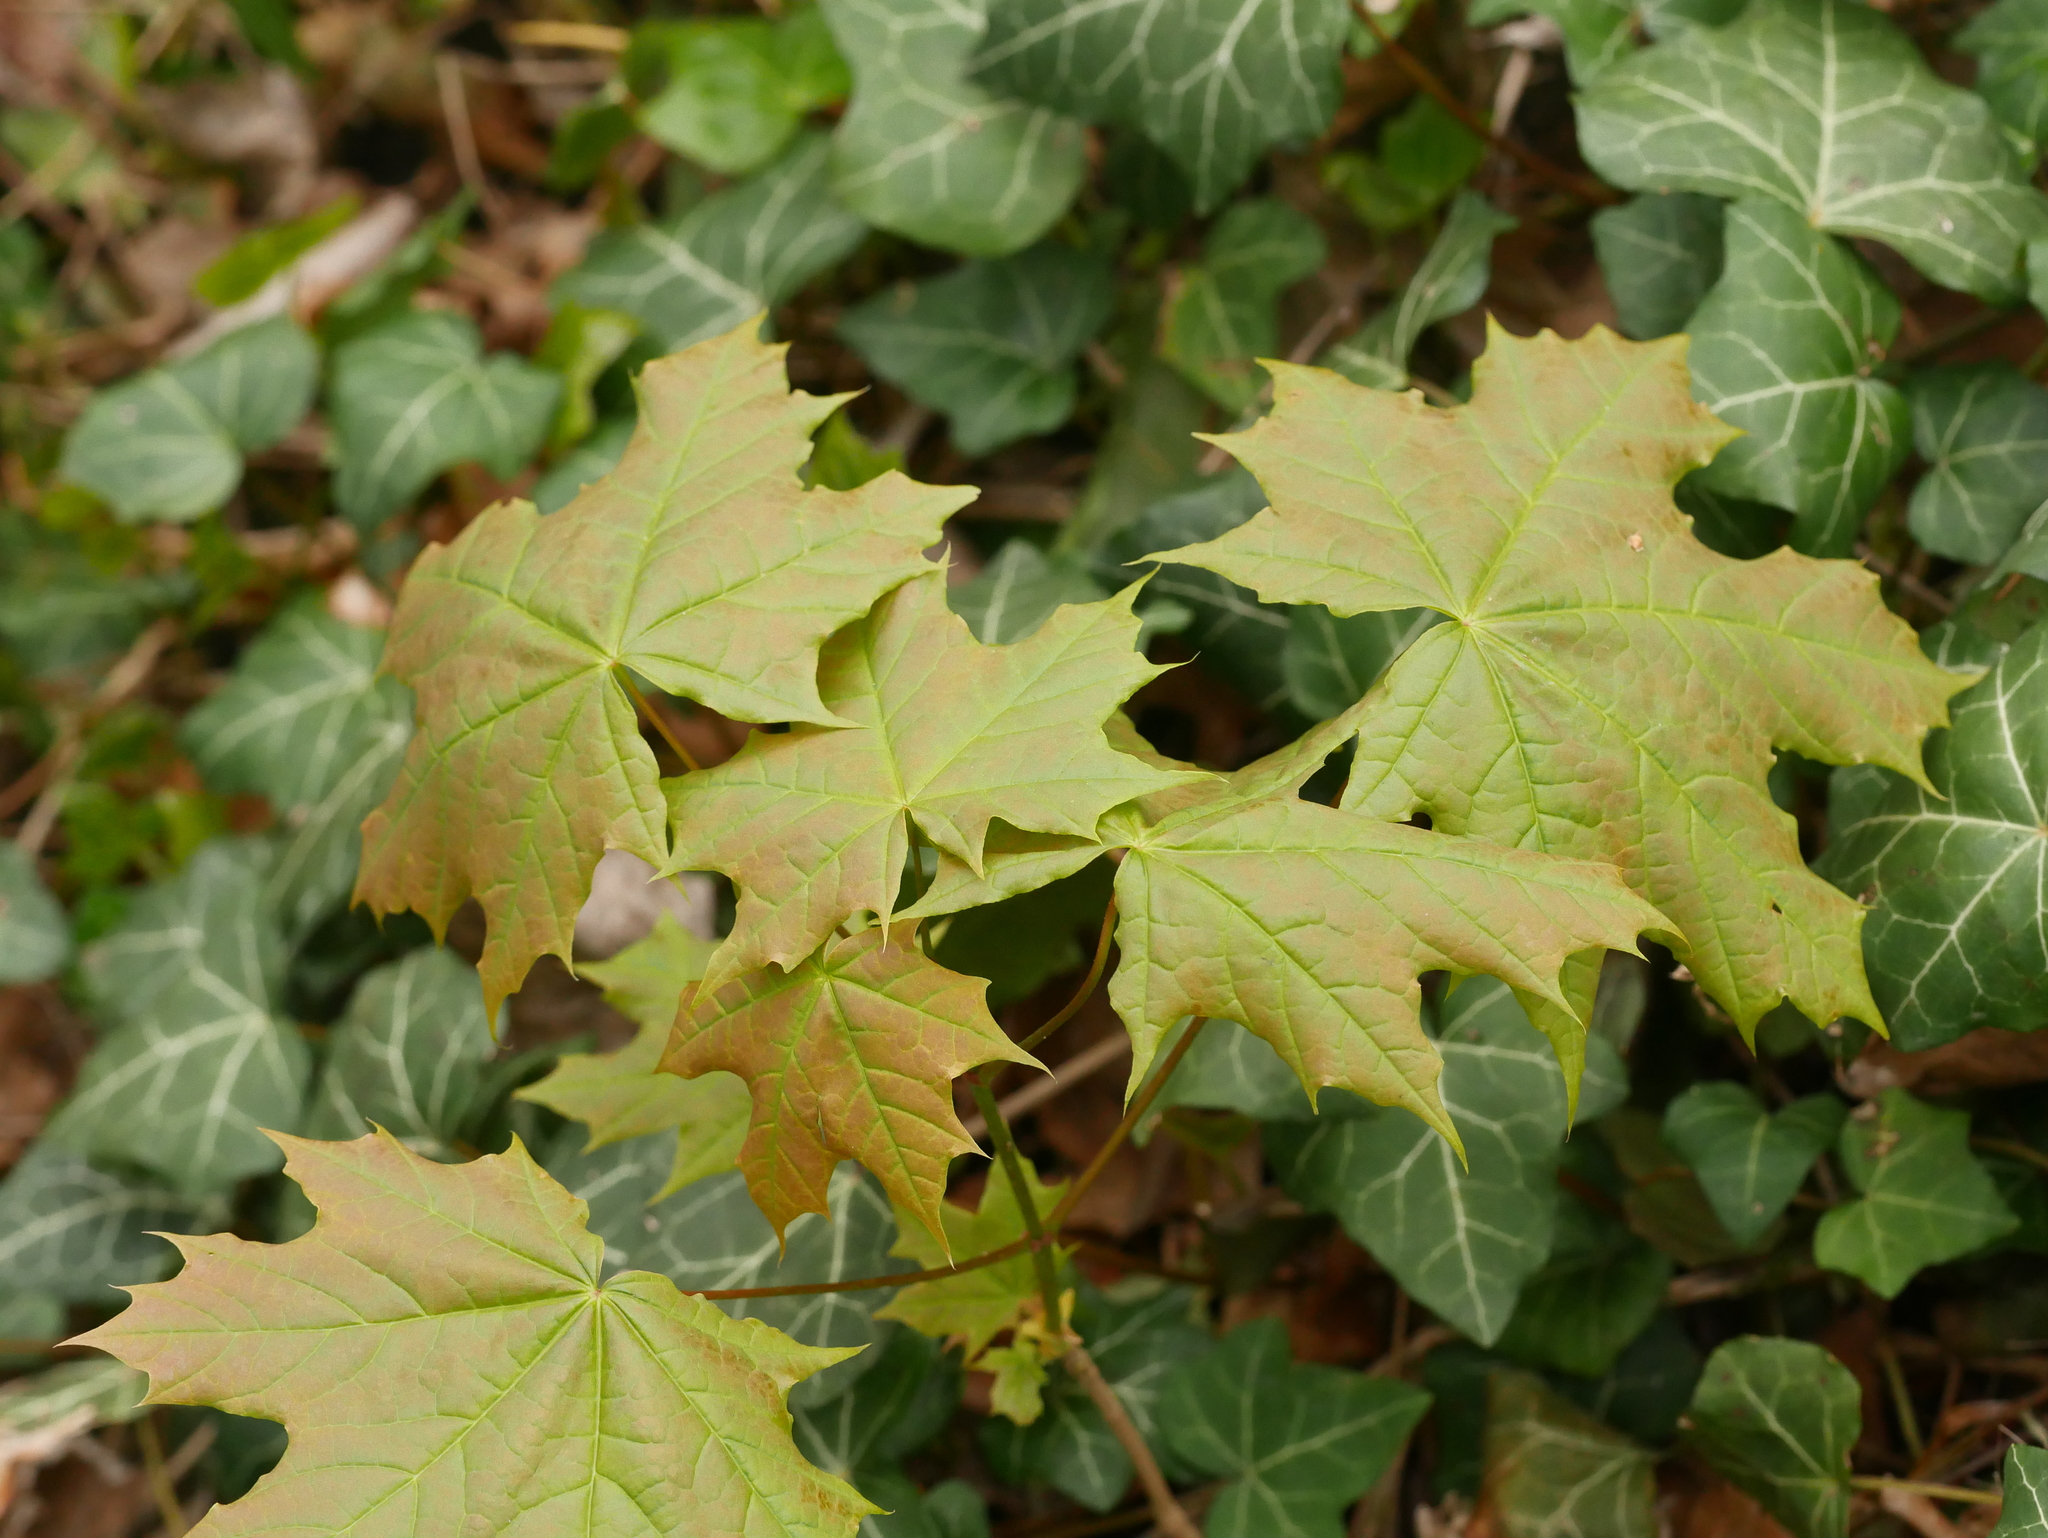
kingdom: Plantae
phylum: Tracheophyta
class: Magnoliopsida
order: Sapindales
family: Sapindaceae
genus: Acer
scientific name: Acer platanoides
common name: Norway maple
